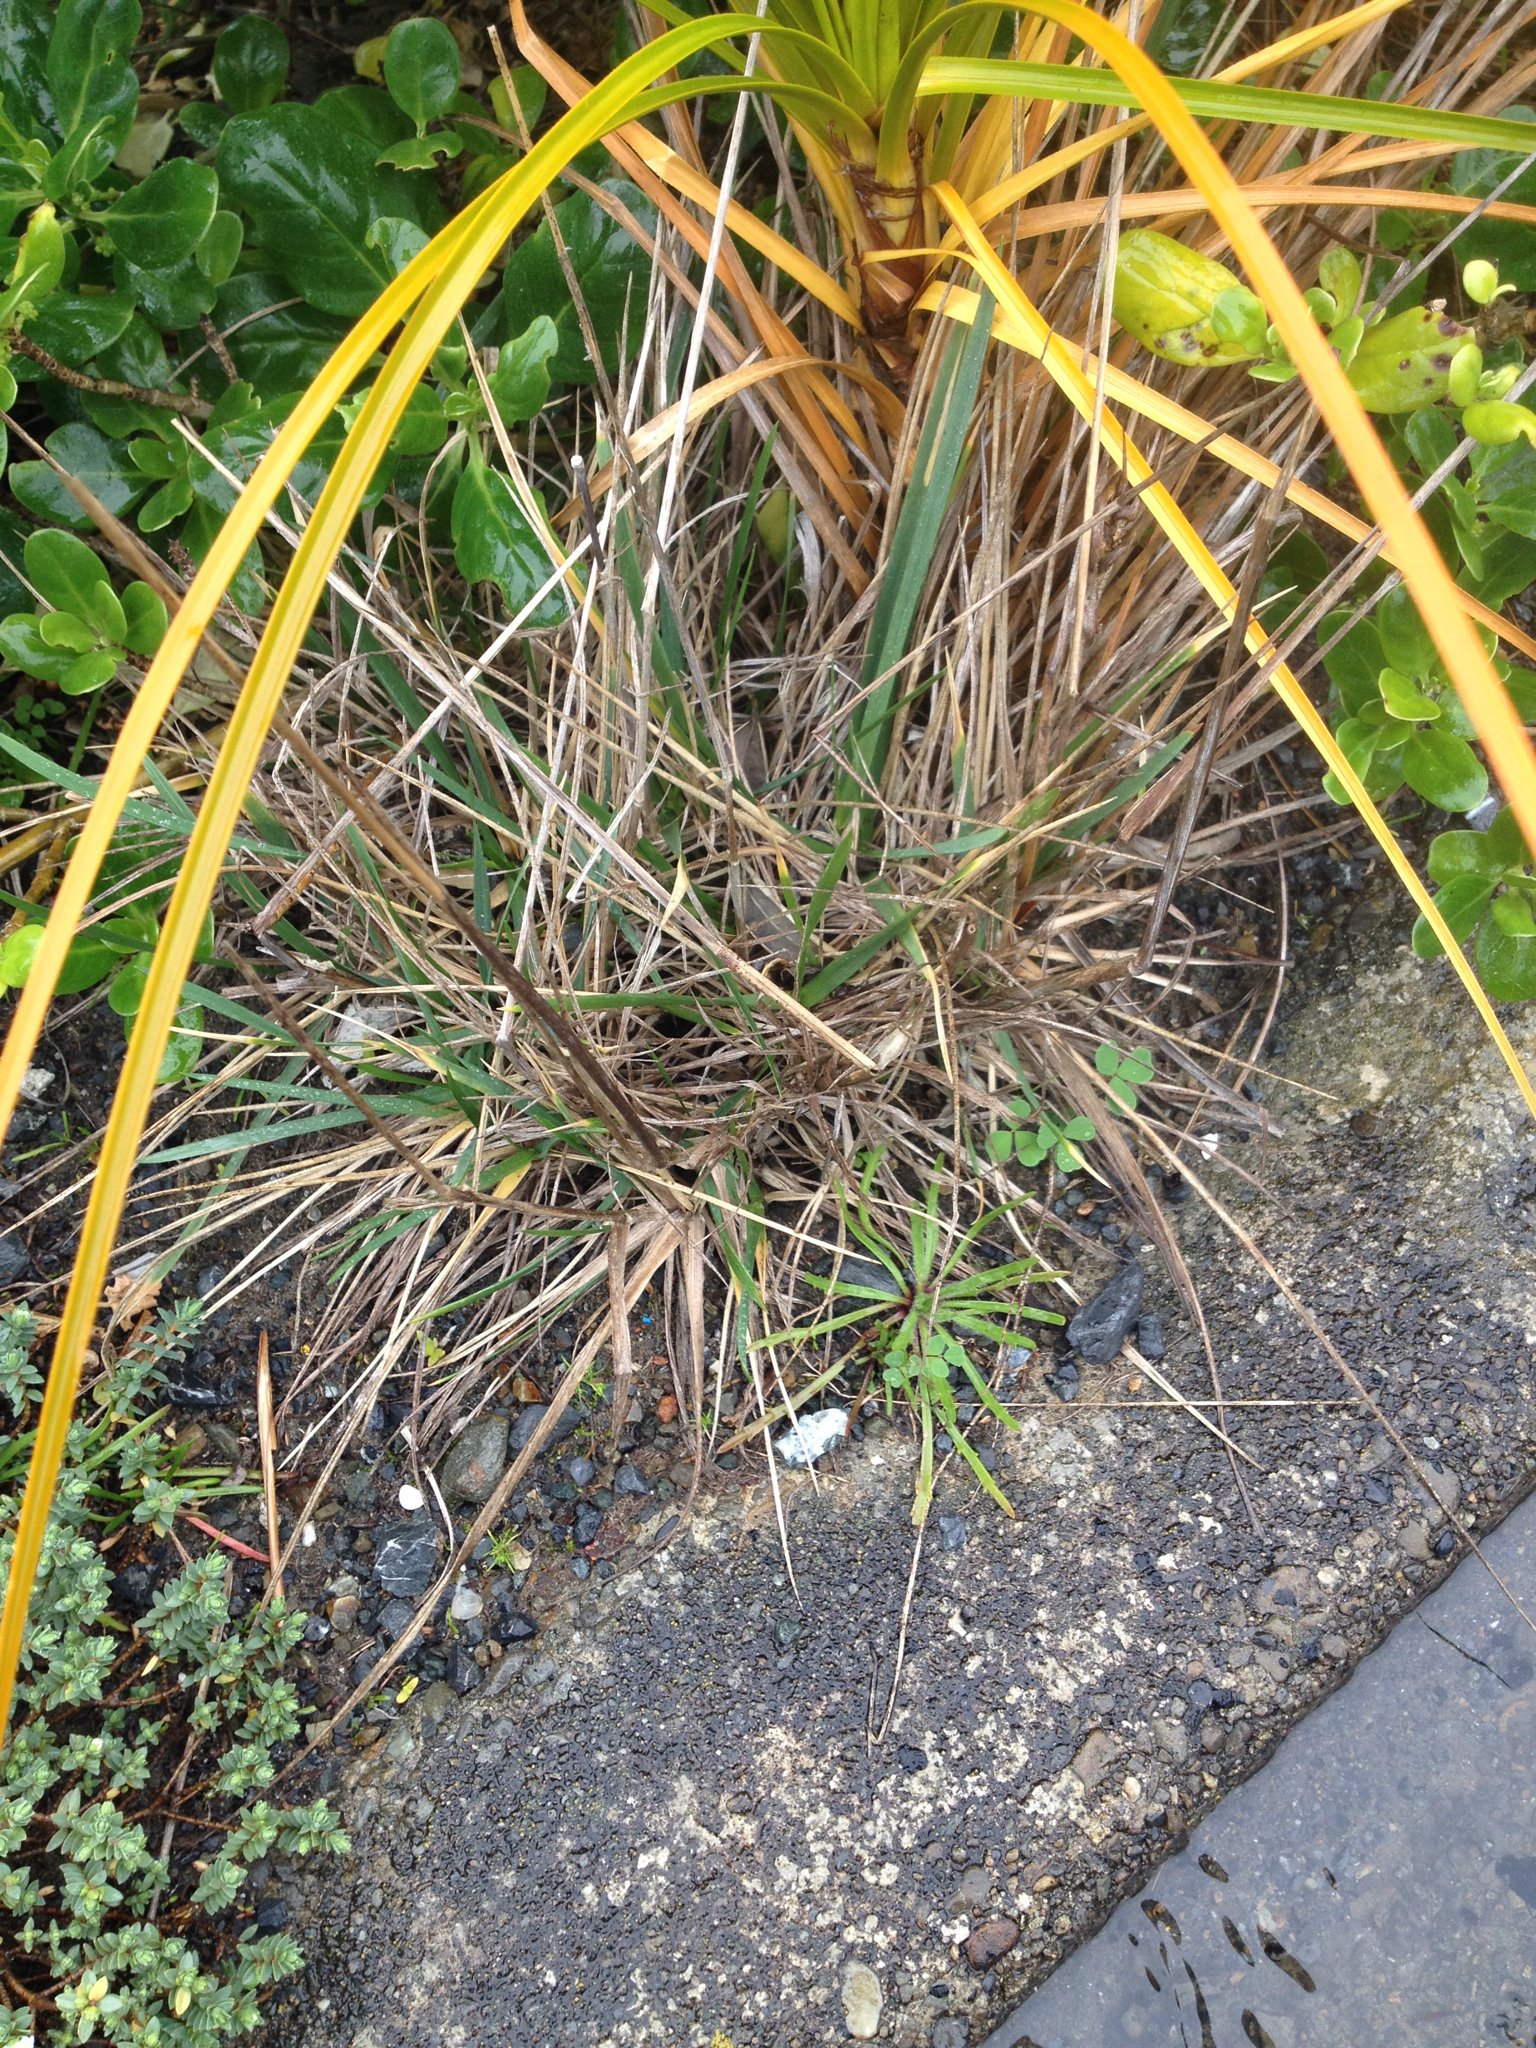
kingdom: Plantae
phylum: Tracheophyta
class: Liliopsida
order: Poales
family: Poaceae
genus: Lachnagrostis
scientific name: Lachnagrostis billardierei
